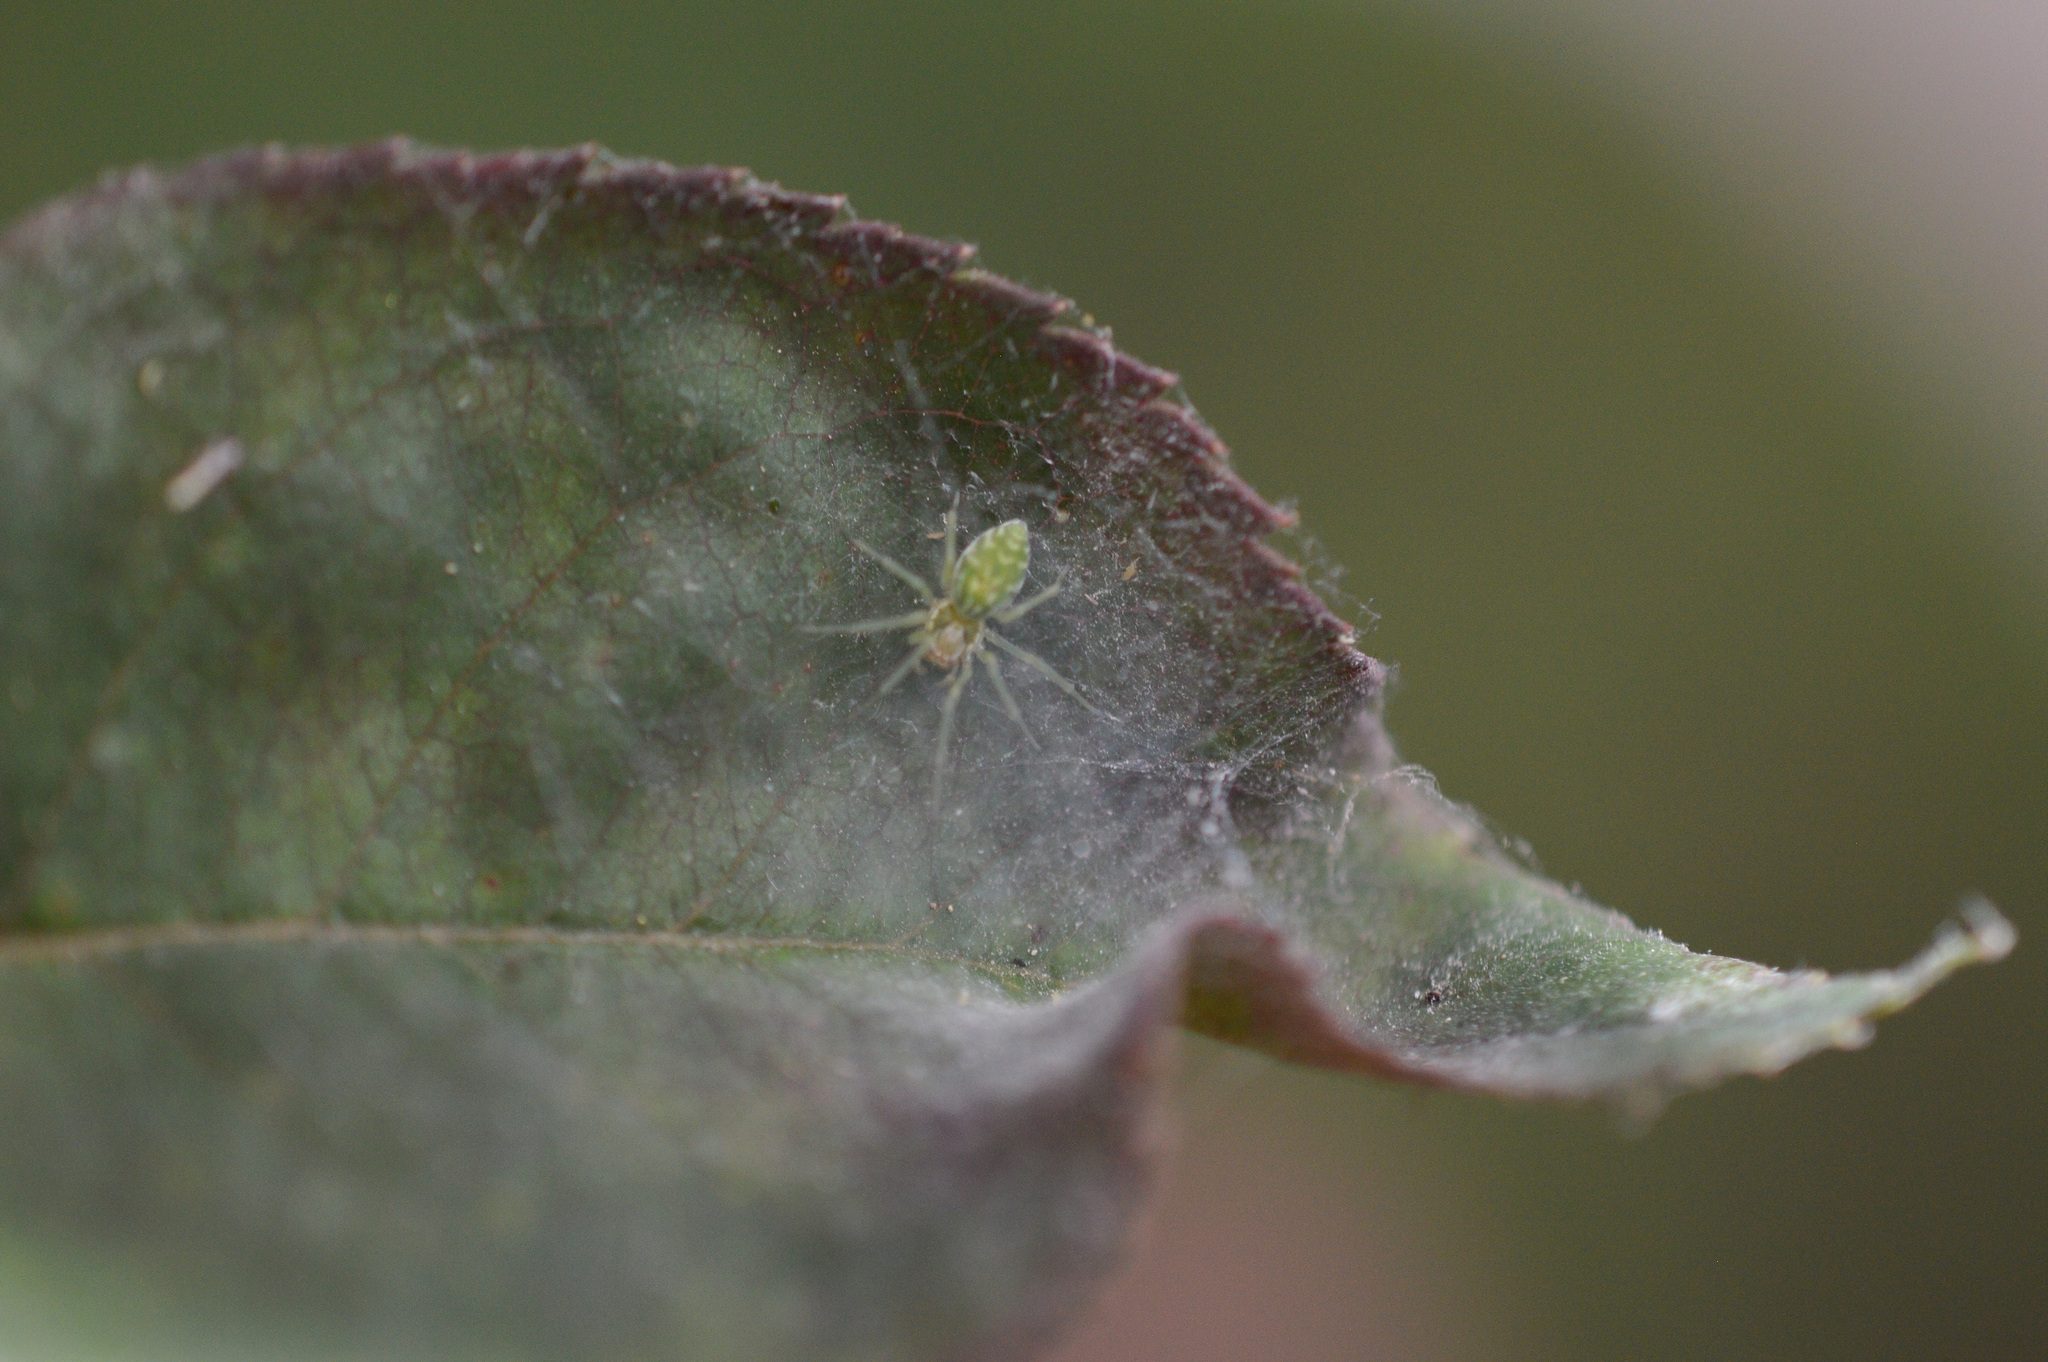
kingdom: Animalia
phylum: Arthropoda
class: Arachnida
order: Araneae
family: Dictynidae
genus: Nigma
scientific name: Nigma walckenaeri
